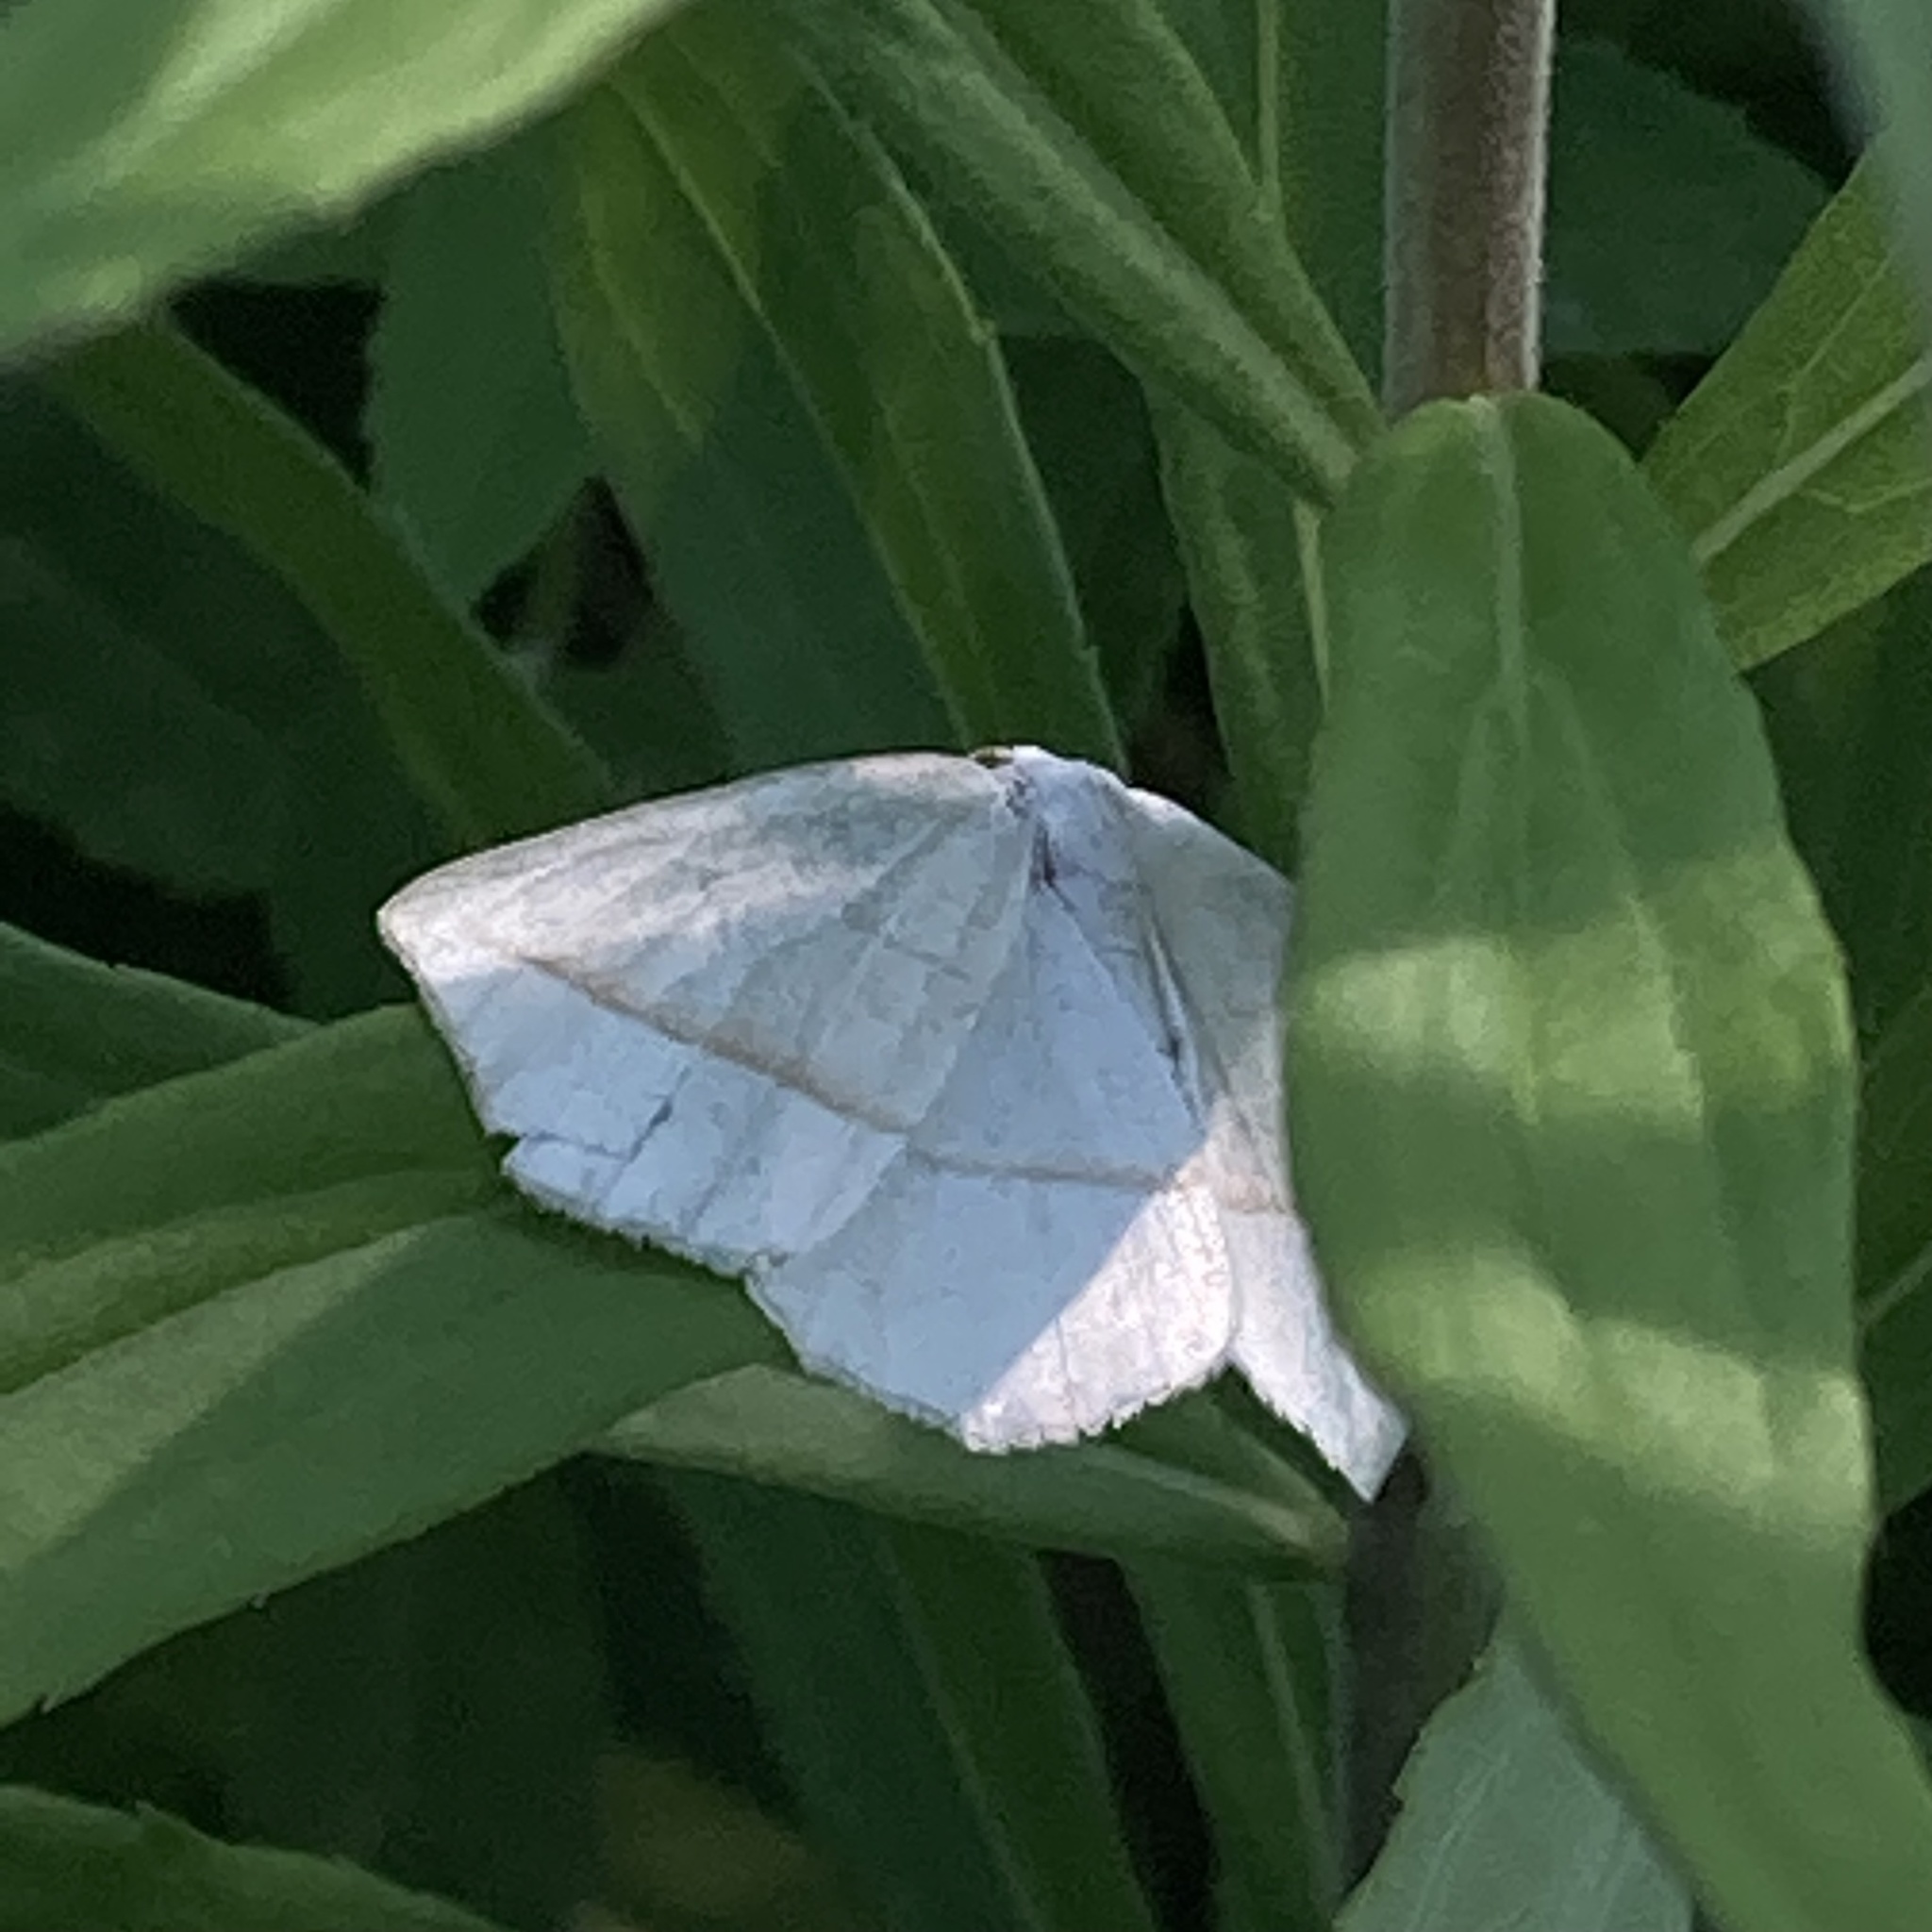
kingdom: Animalia
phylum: Arthropoda
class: Insecta
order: Lepidoptera
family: Geometridae
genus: Eusarca
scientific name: Eusarca confusaria
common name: Confused eusarca
